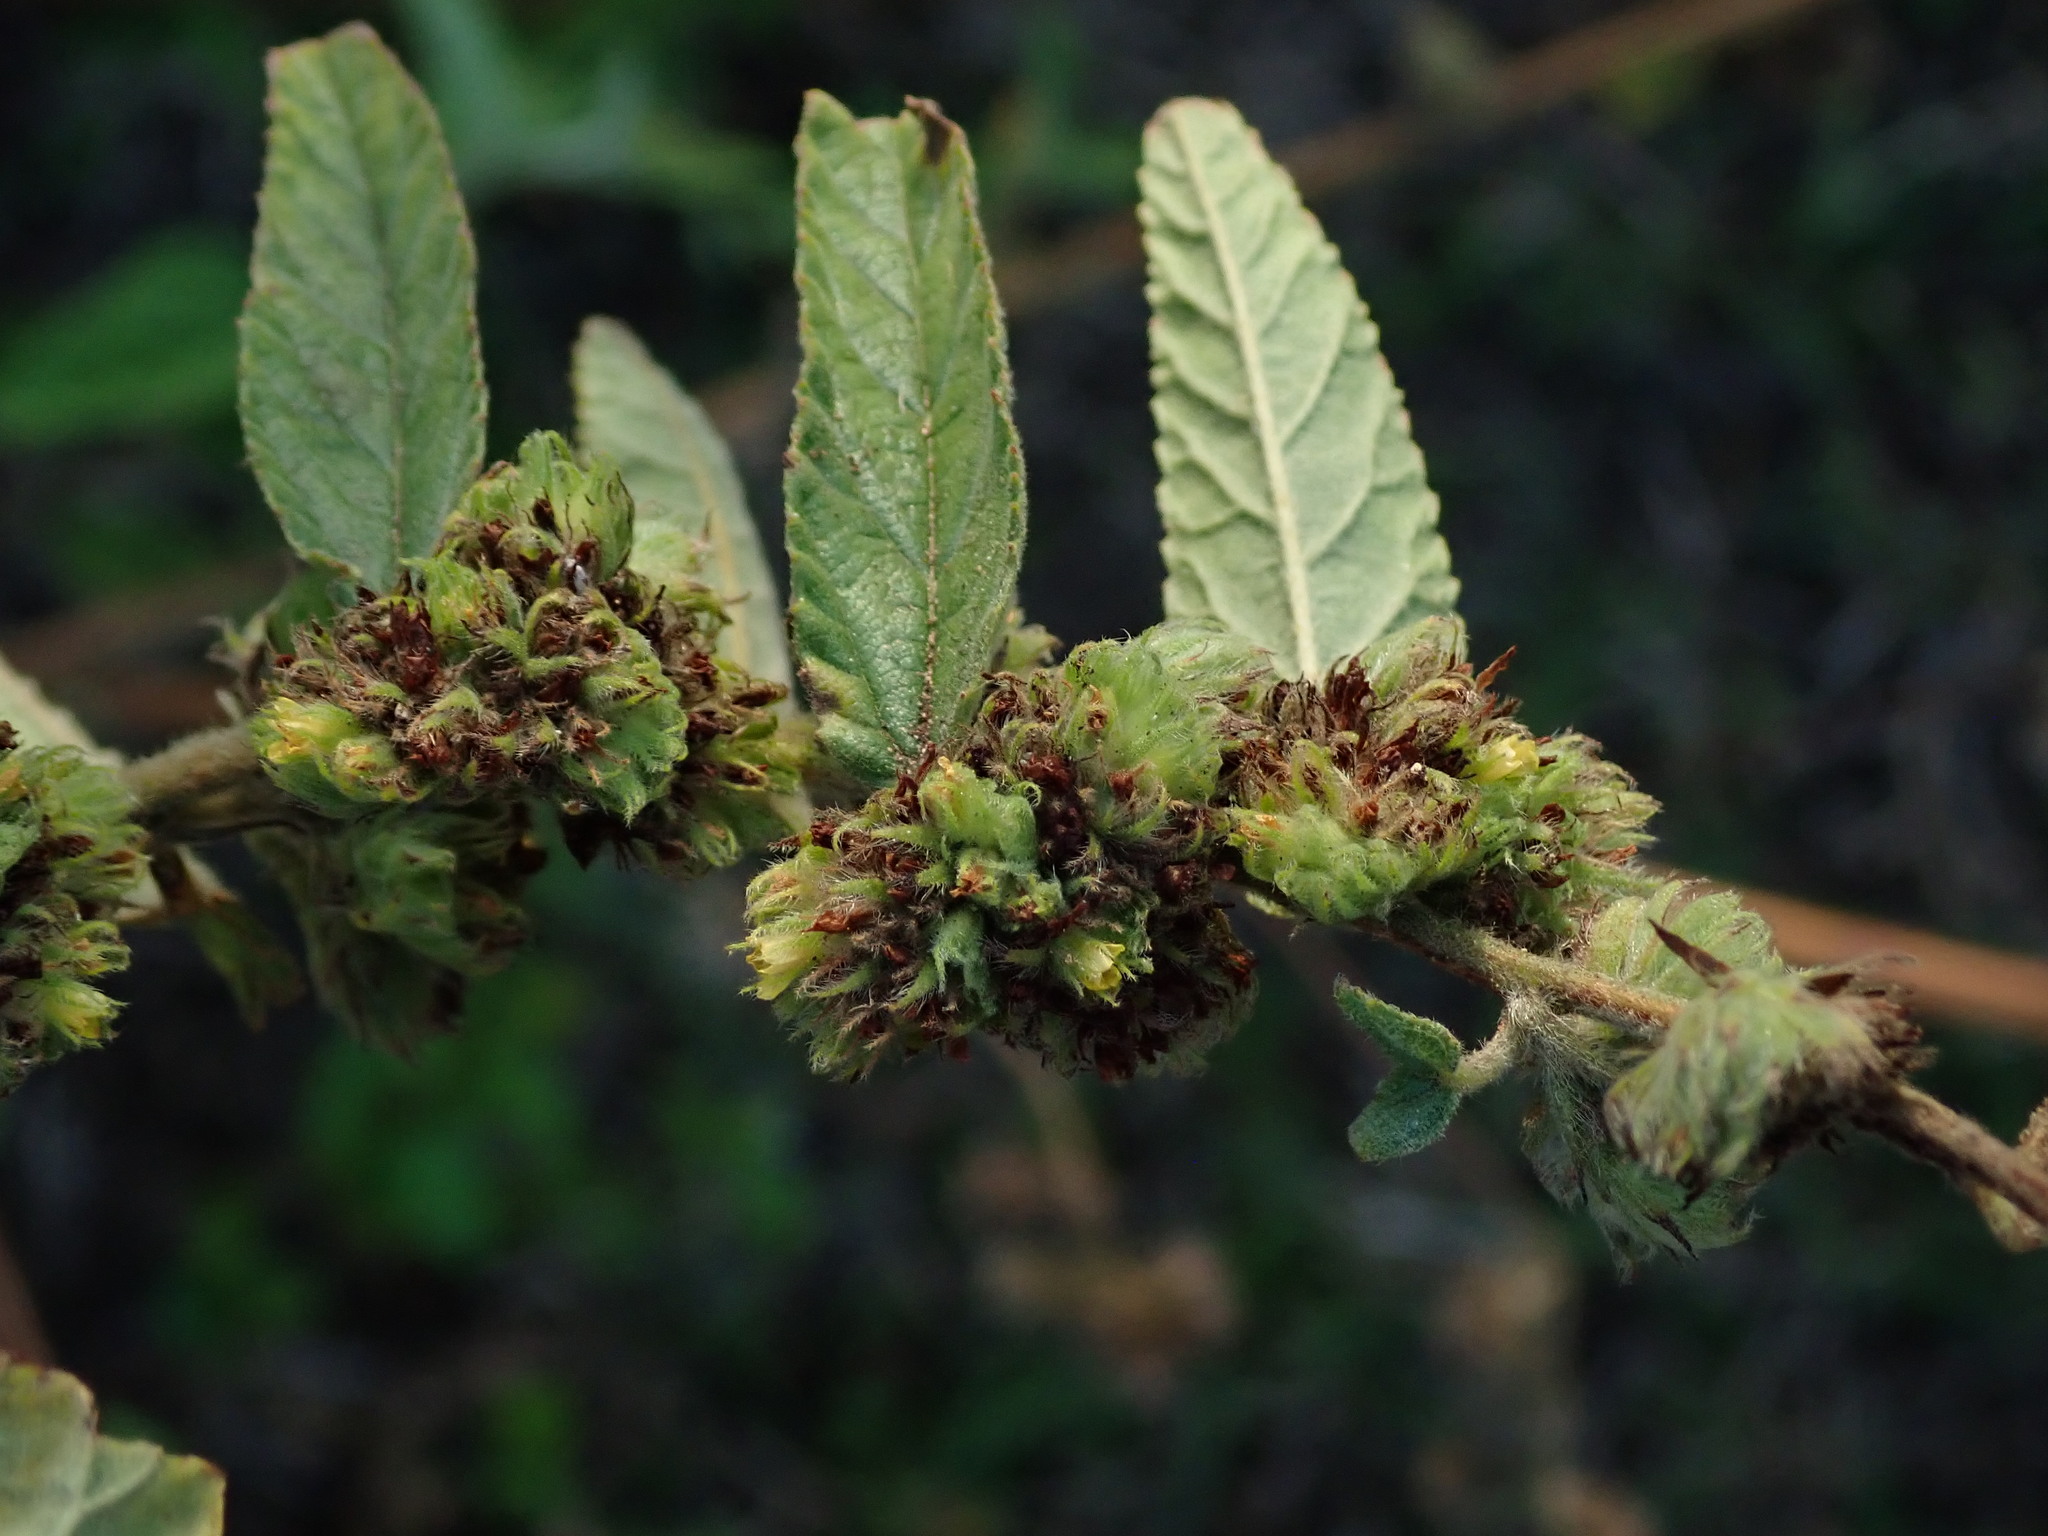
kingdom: Plantae
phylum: Tracheophyta
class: Magnoliopsida
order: Malvales
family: Malvaceae
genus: Waltheria
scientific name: Waltheria indica
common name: Leather-coat
